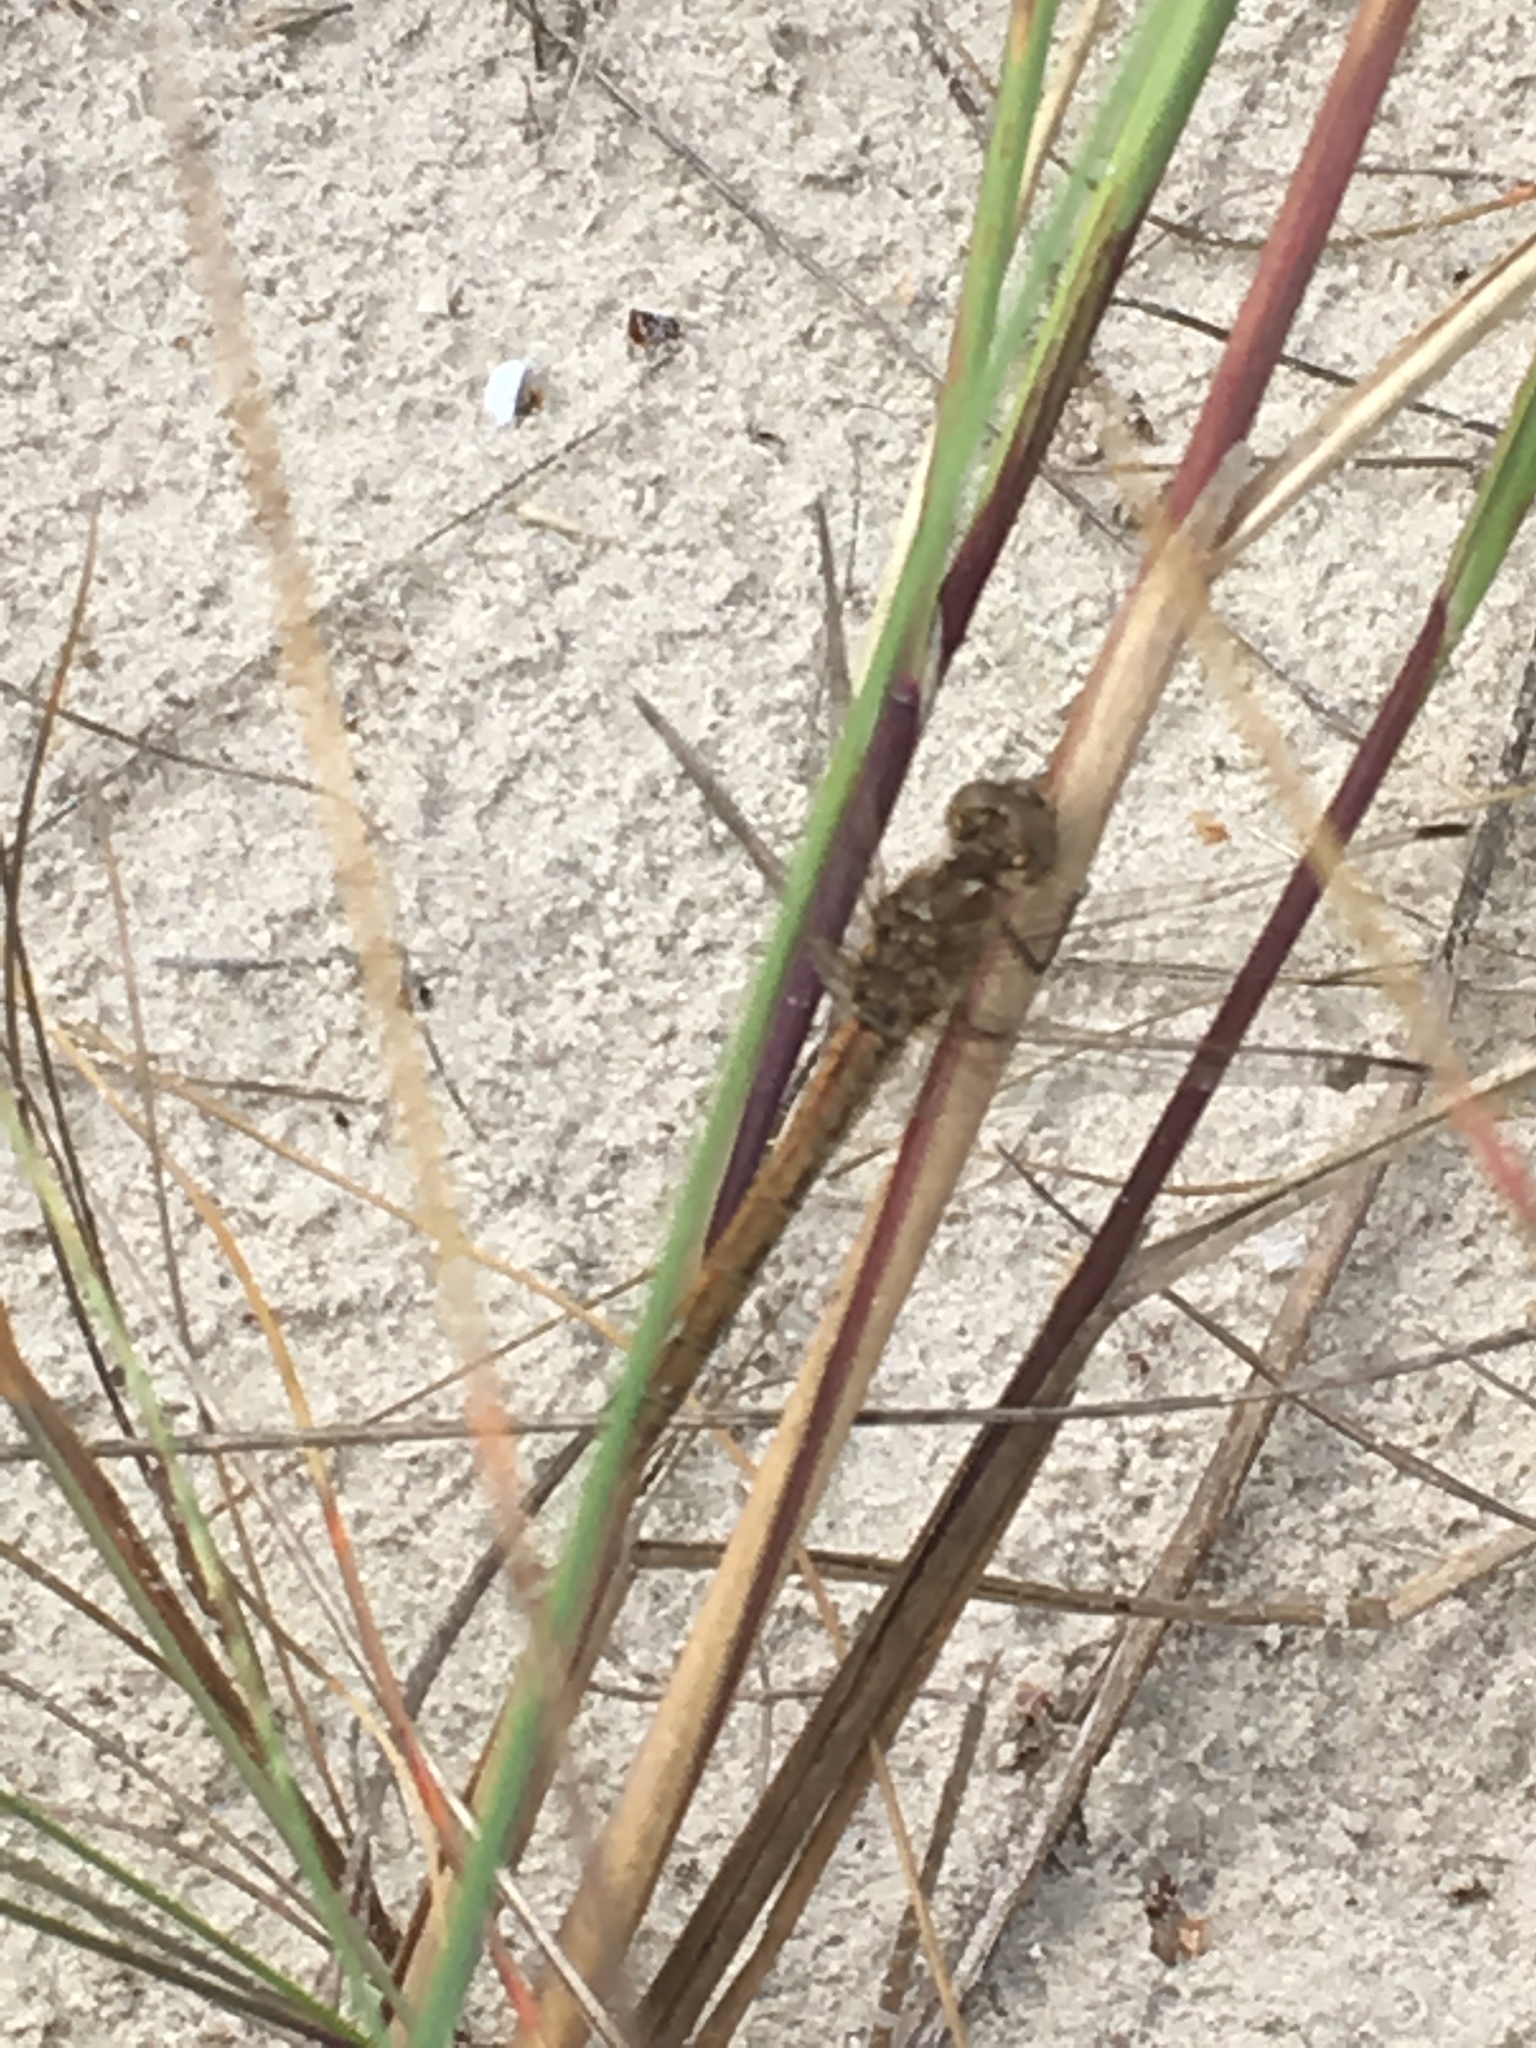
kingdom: Animalia
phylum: Arthropoda
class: Insecta
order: Odonata
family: Libellulidae
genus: Sympetrum
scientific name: Sympetrum vulgatum
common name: Vagrant darter
